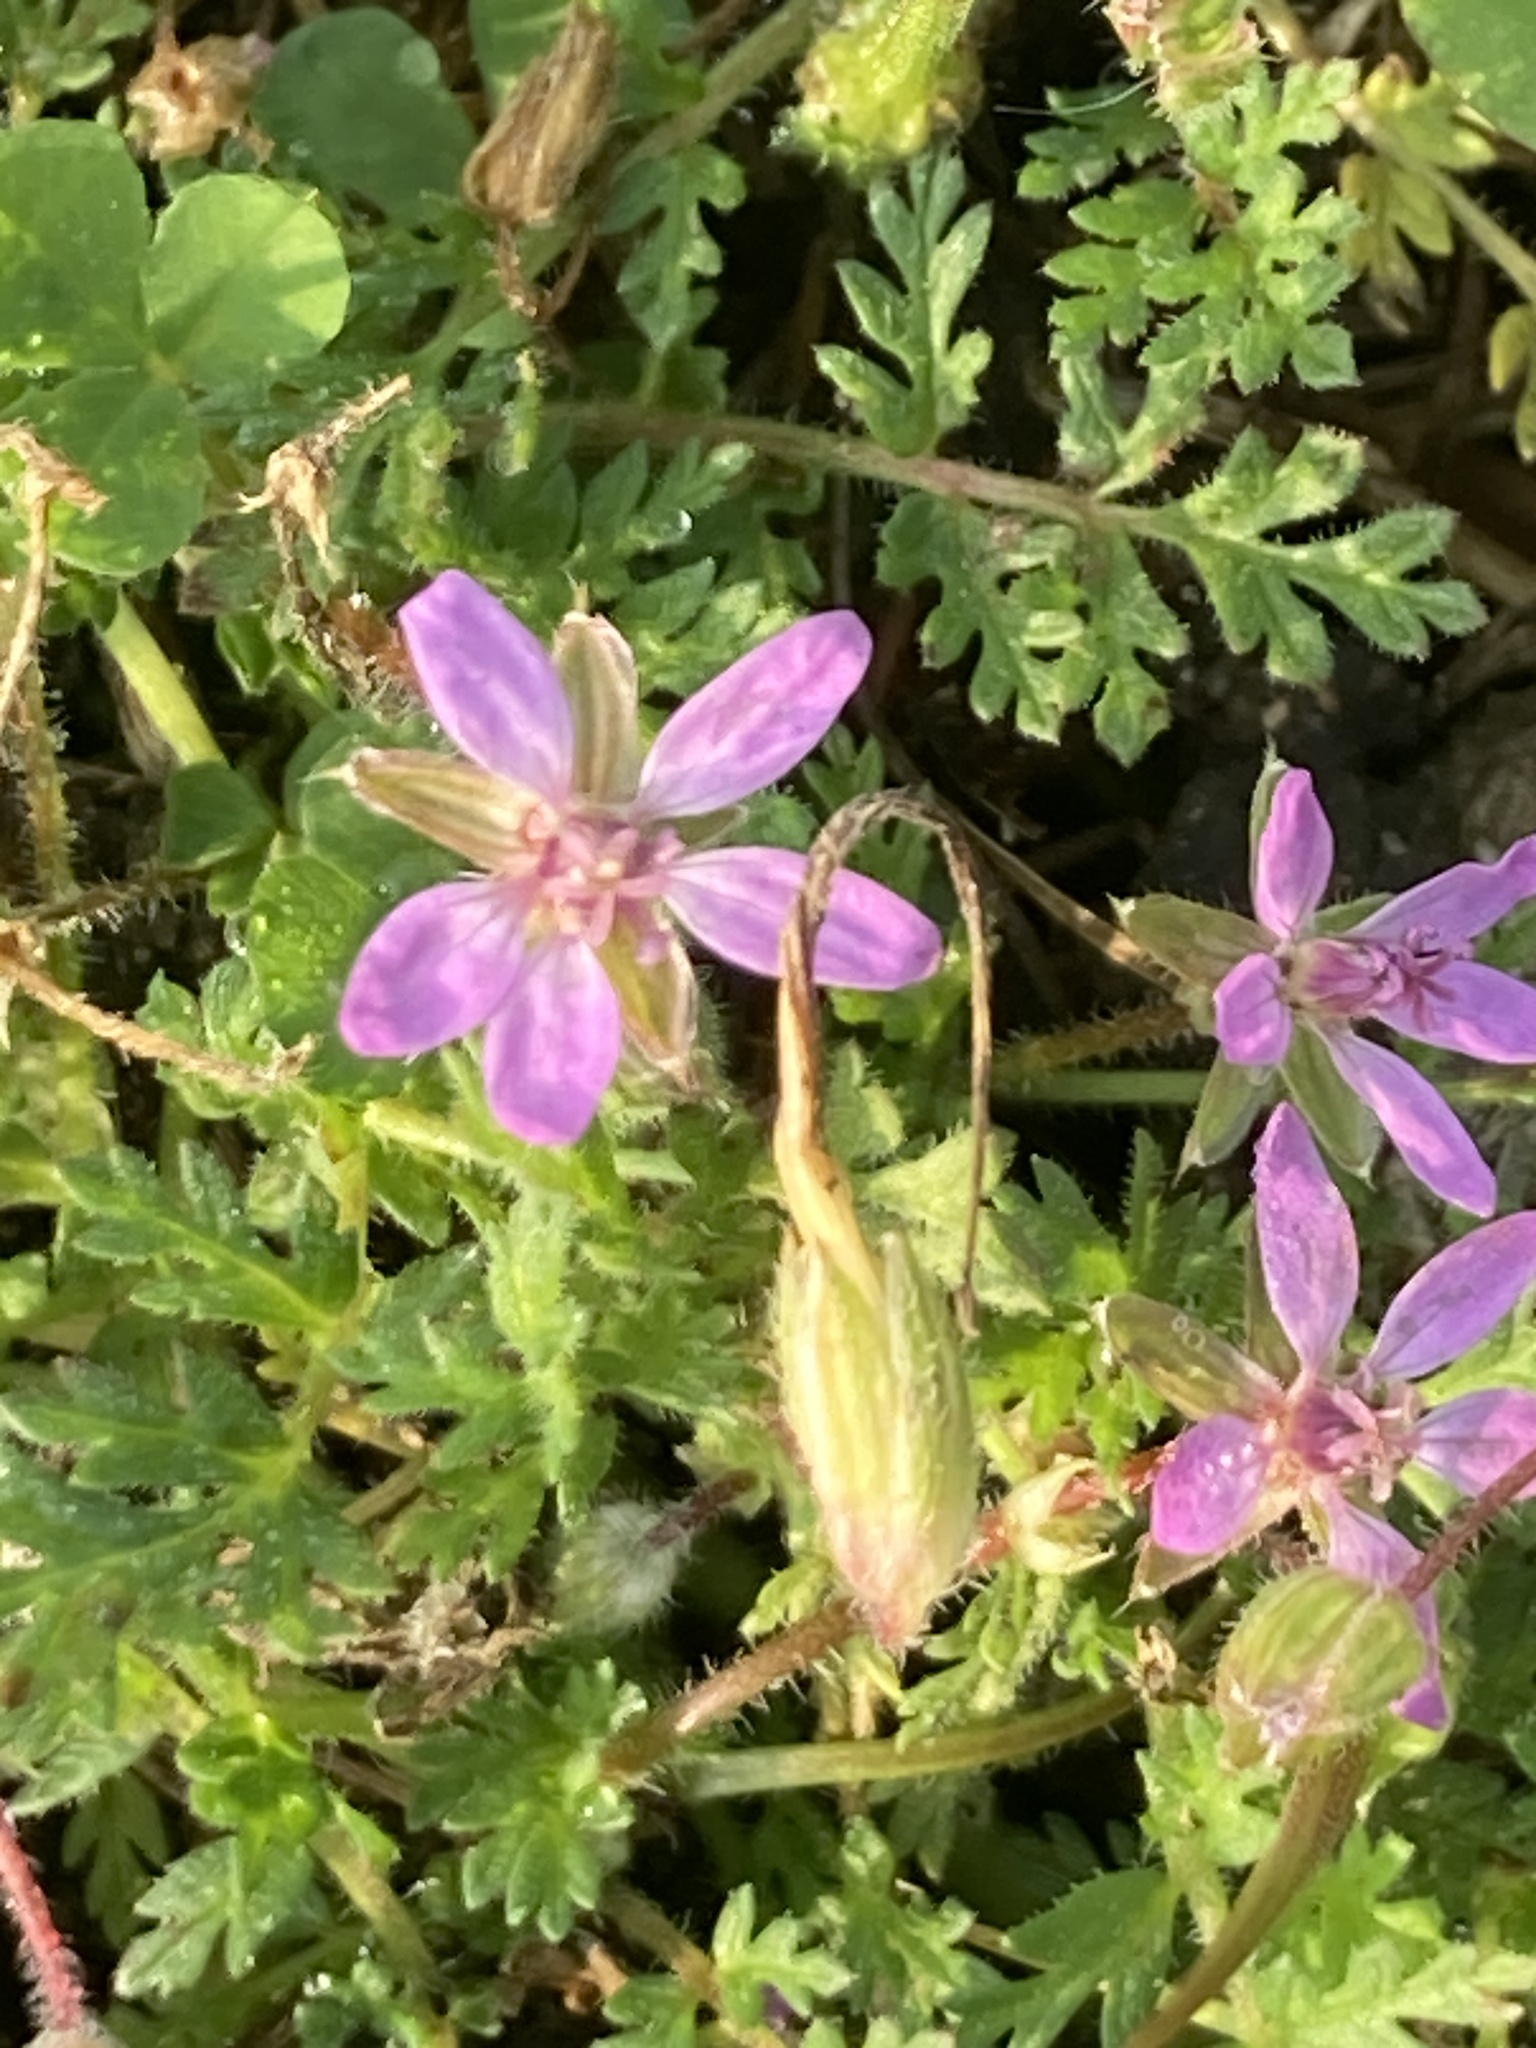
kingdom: Plantae
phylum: Tracheophyta
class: Magnoliopsida
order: Geraniales
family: Geraniaceae
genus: Erodium
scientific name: Erodium cicutarium
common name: Common stork's-bill
